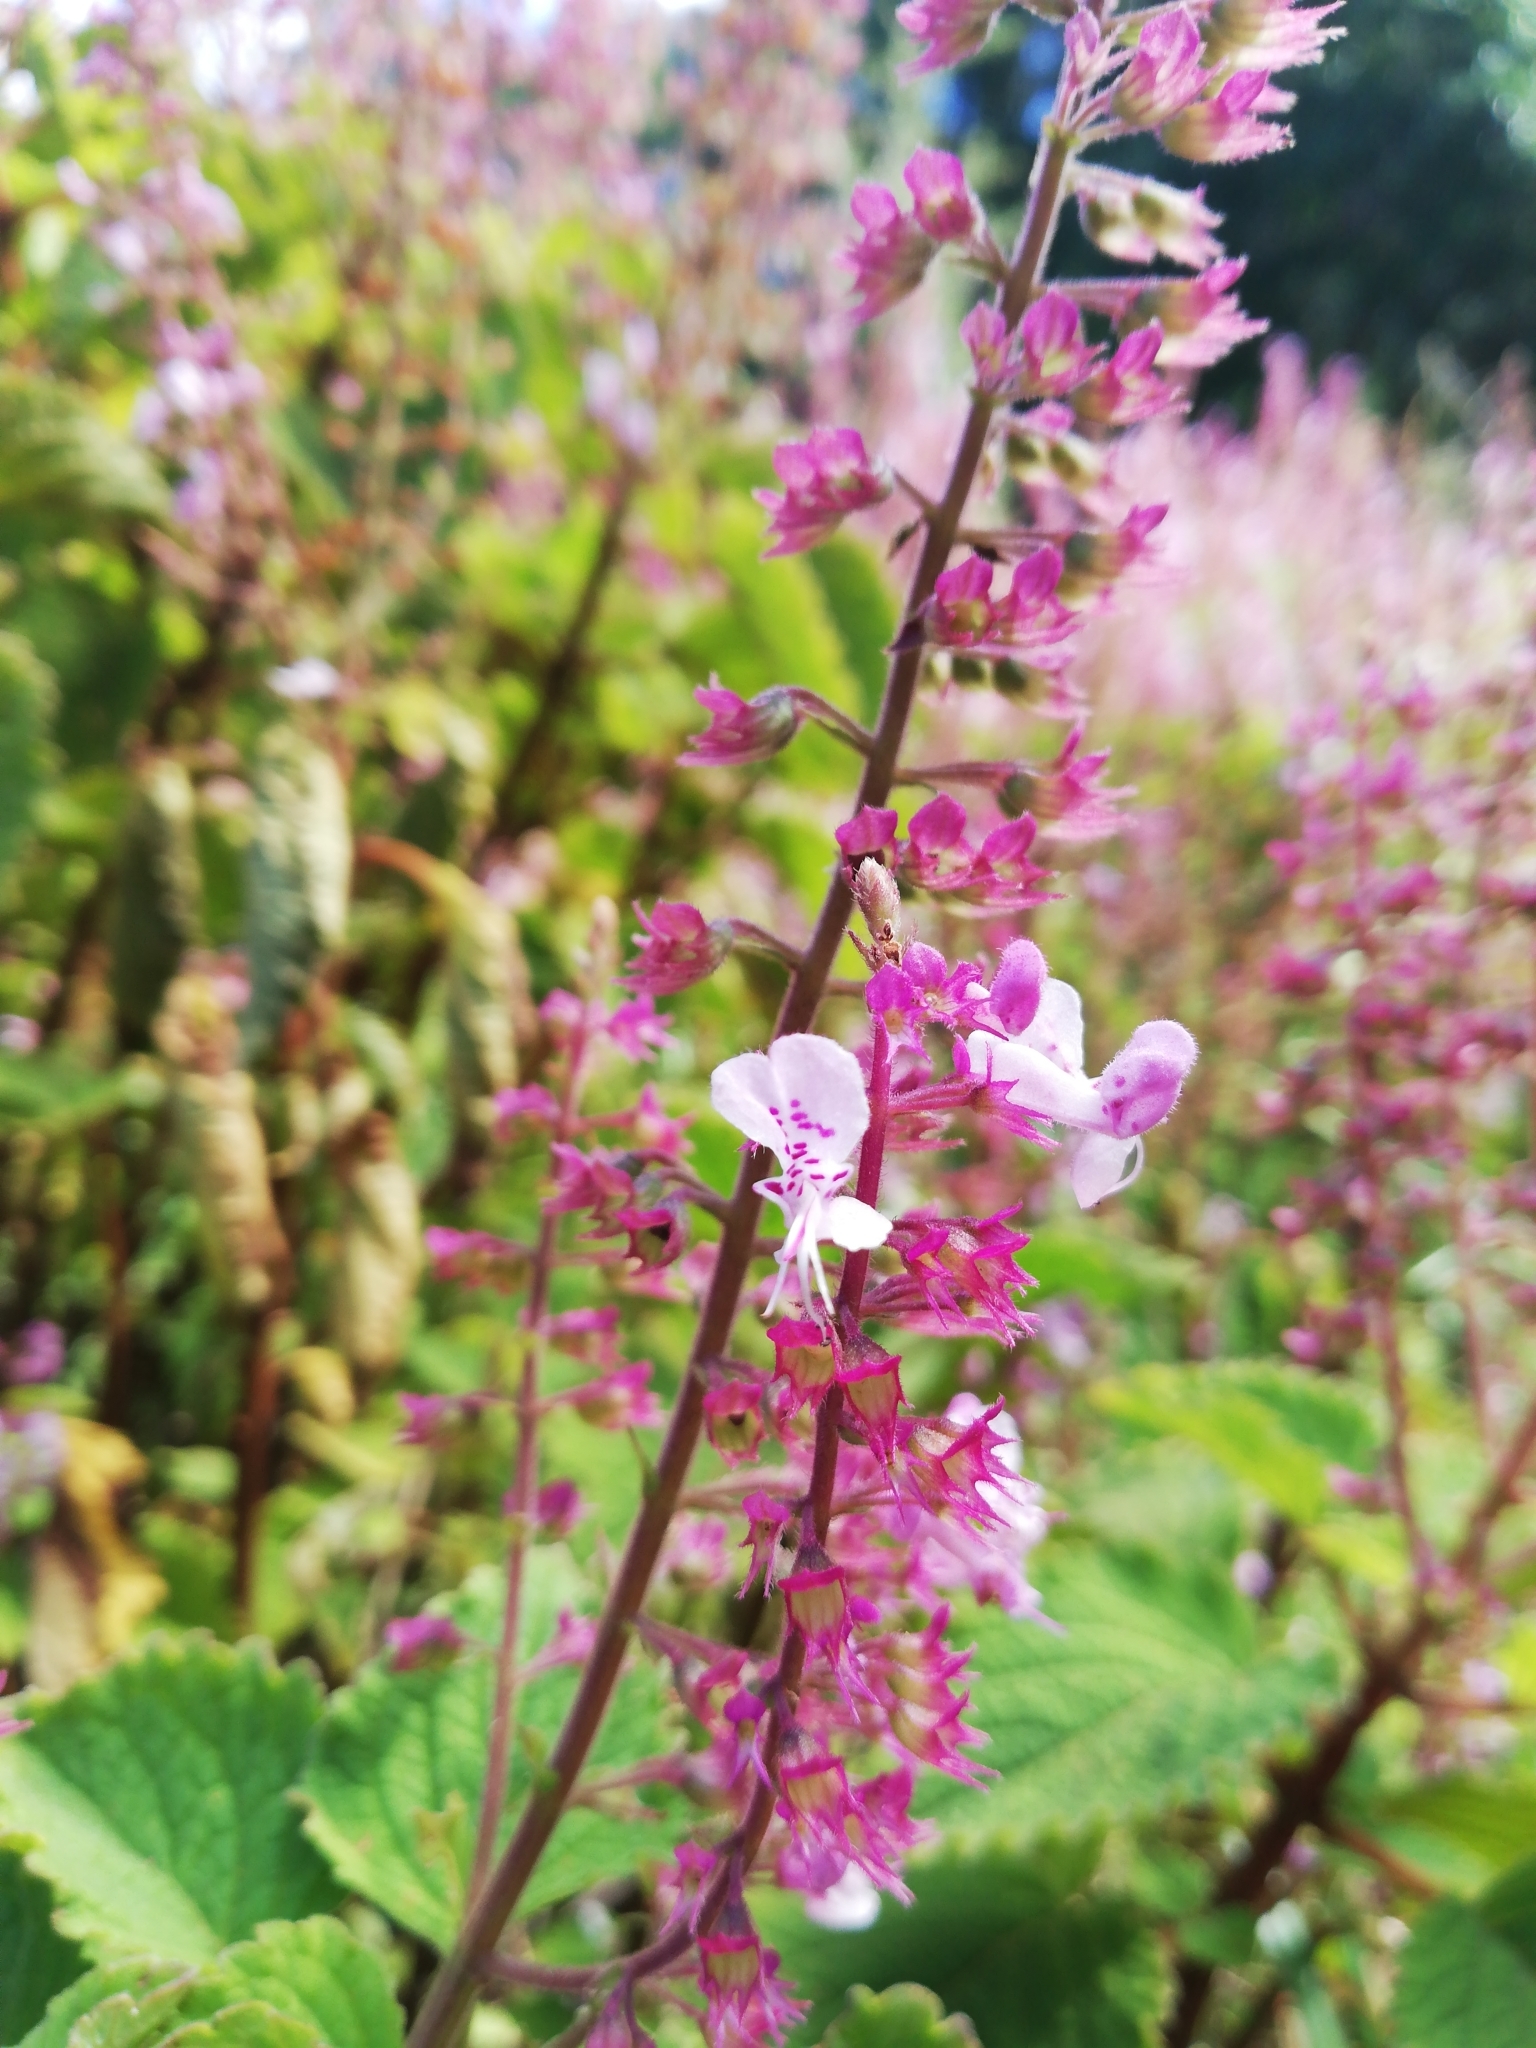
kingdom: Plantae
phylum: Tracheophyta
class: Magnoliopsida
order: Lamiales
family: Lamiaceae
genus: Plectranthus
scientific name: Plectranthus fruticosus
